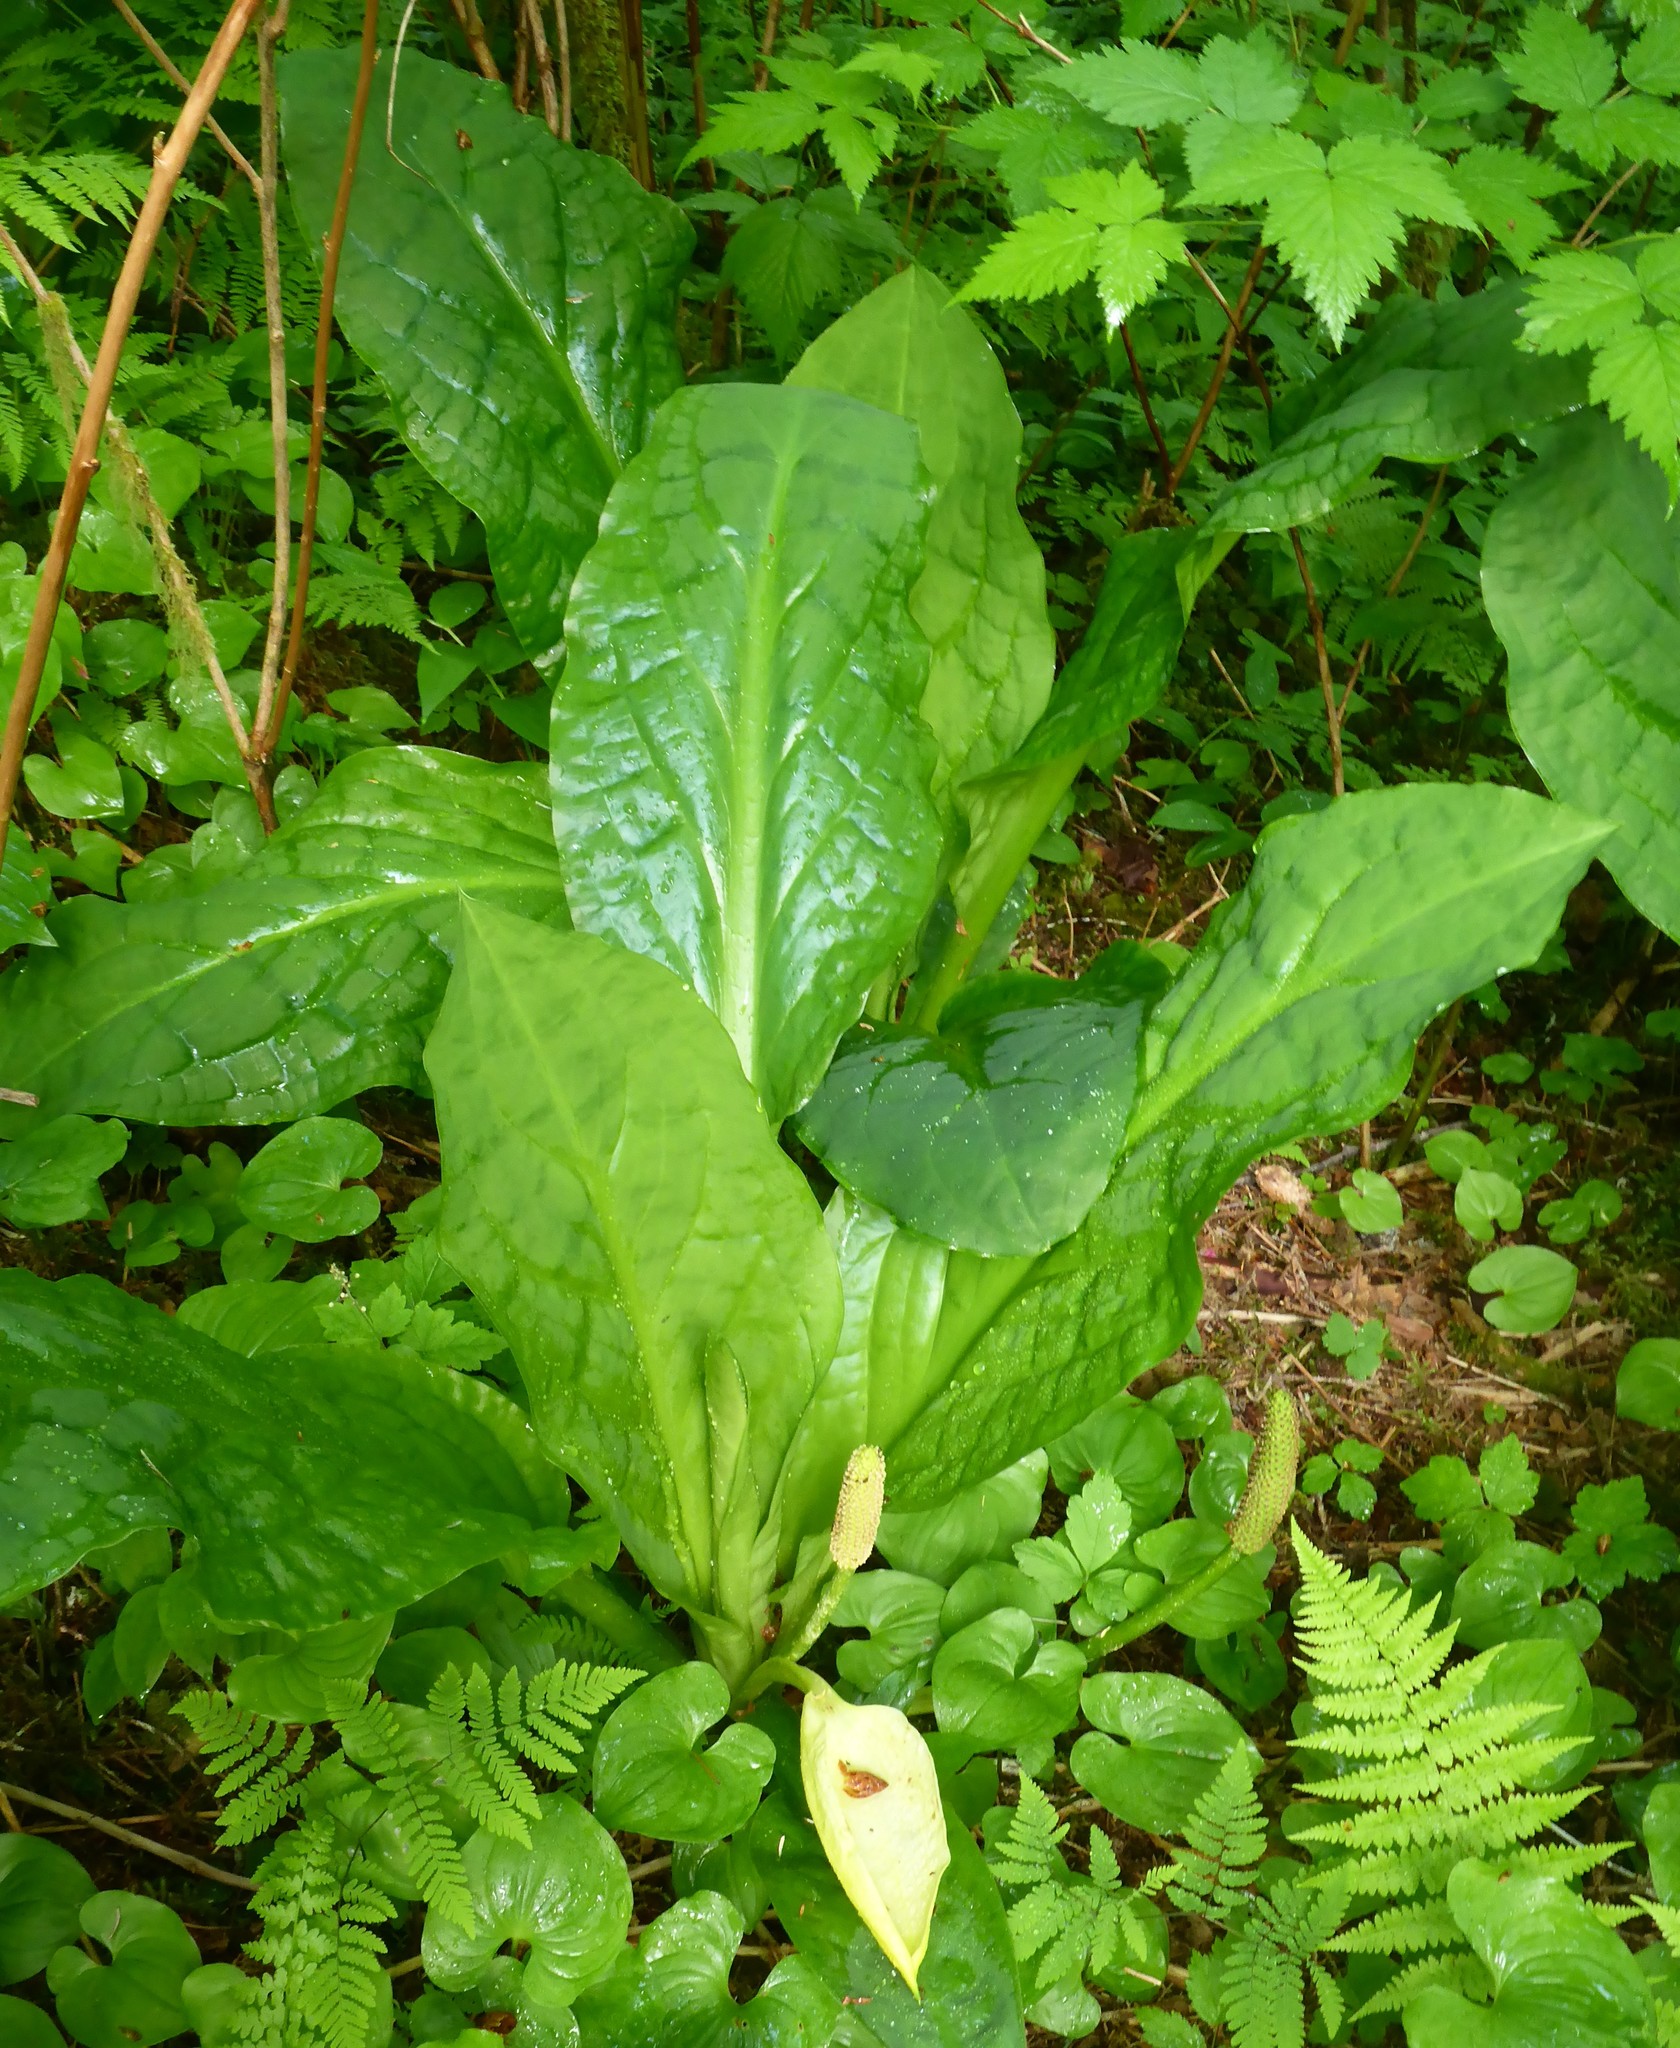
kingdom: Plantae
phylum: Tracheophyta
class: Liliopsida
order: Alismatales
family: Araceae
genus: Lysichiton
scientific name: Lysichiton americanus
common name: American skunk cabbage
